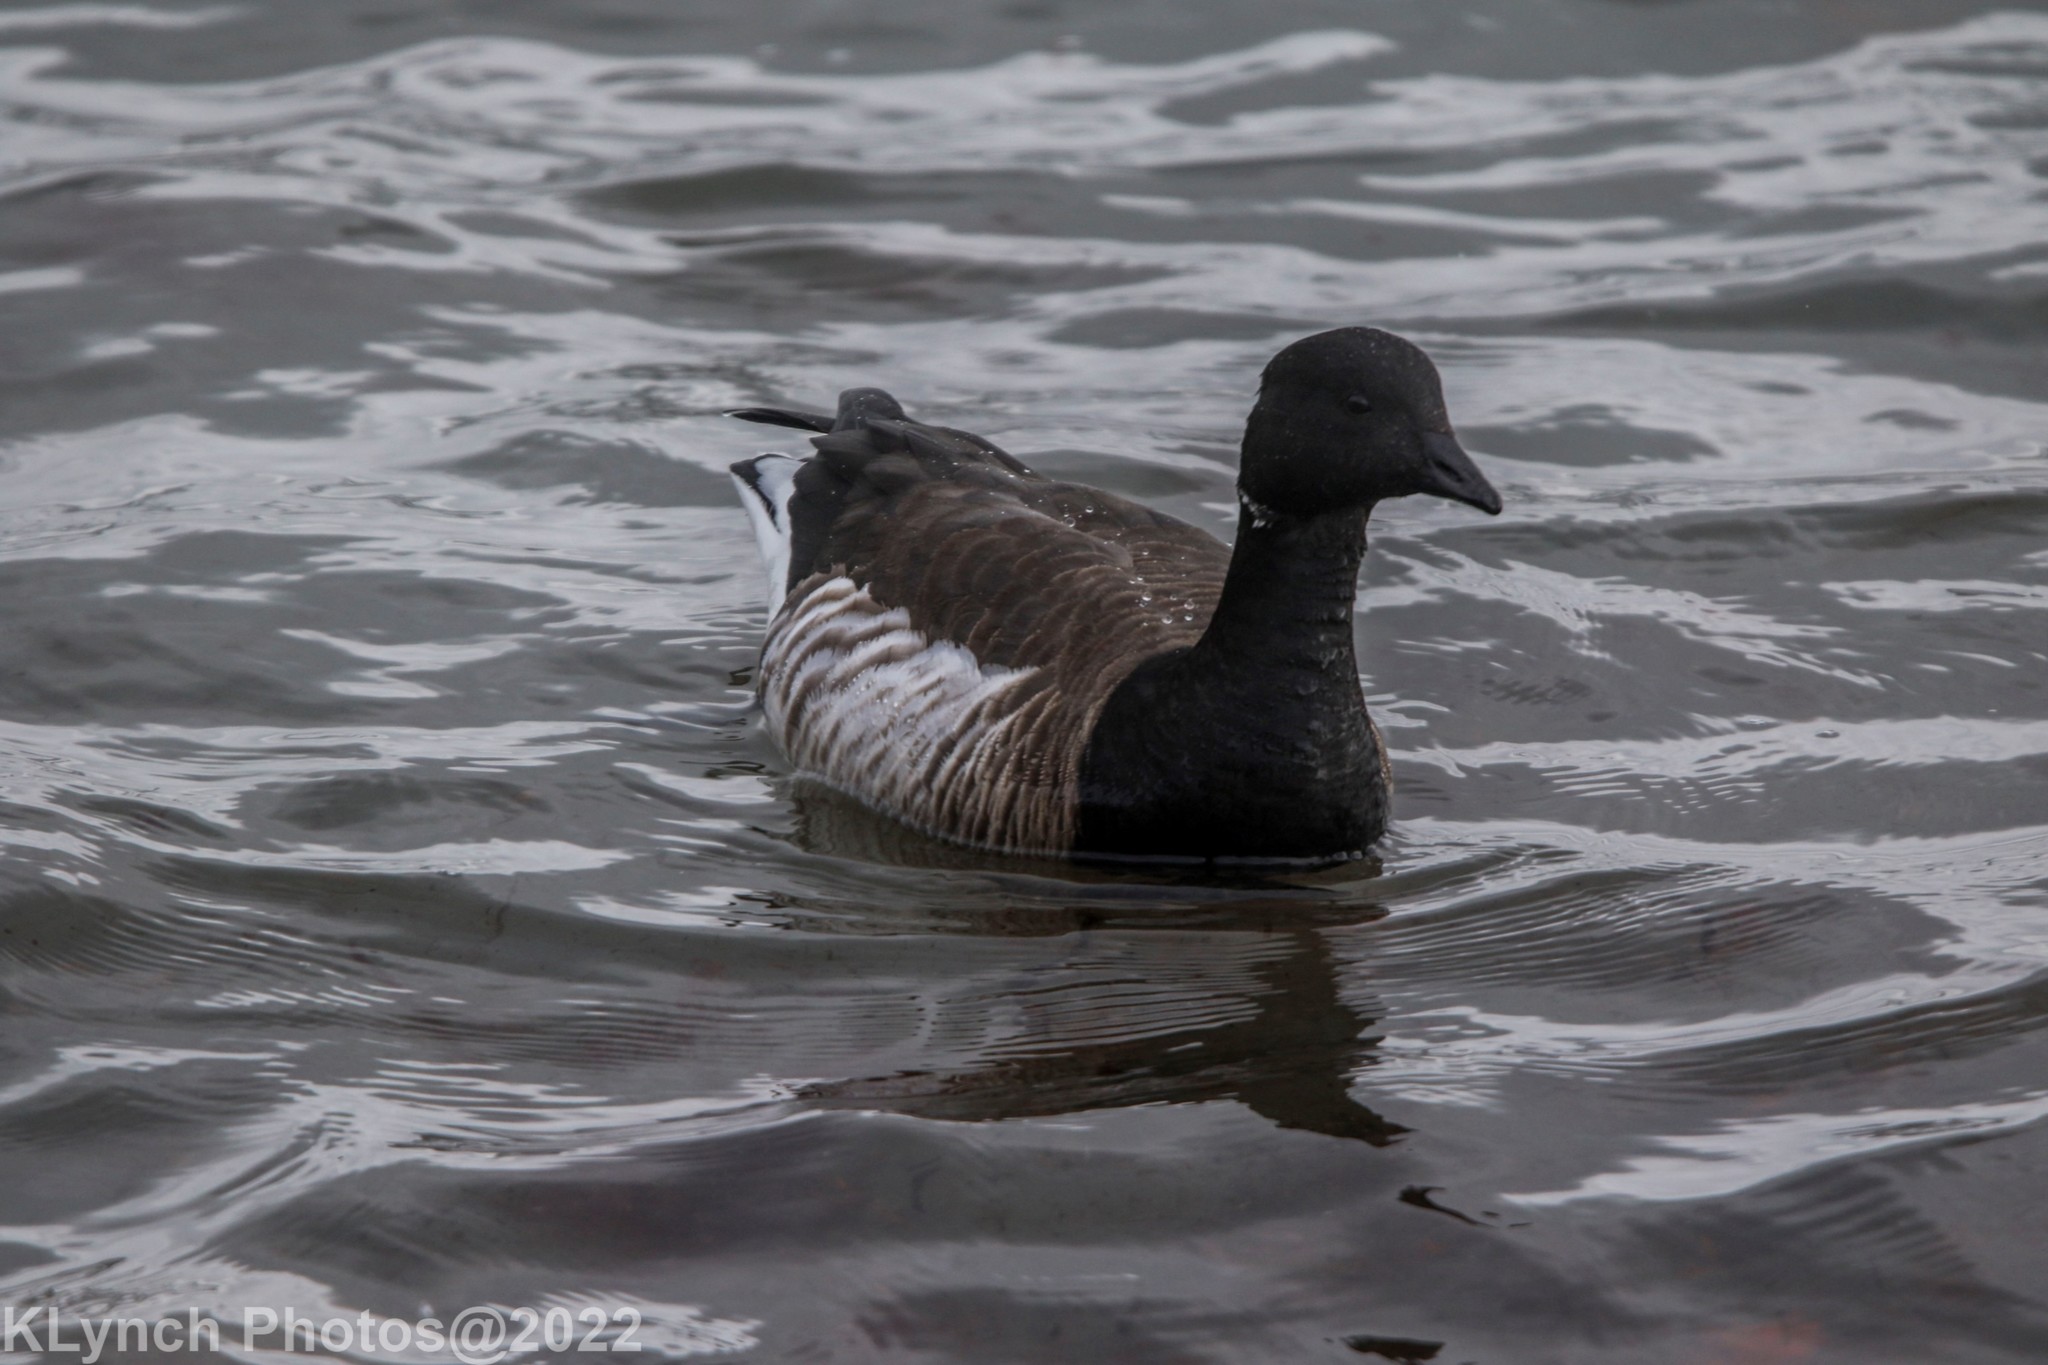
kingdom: Animalia
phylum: Chordata
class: Aves
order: Anseriformes
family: Anatidae
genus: Branta
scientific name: Branta bernicla
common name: Brant goose
